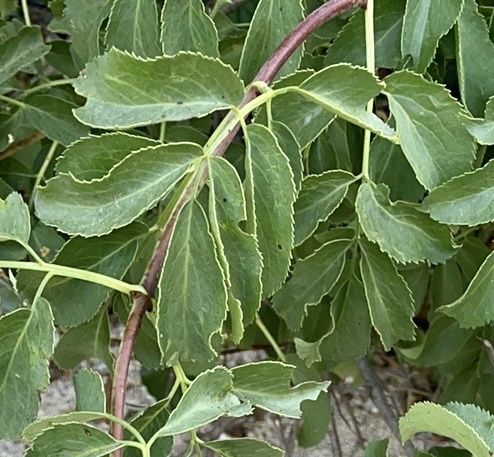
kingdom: Plantae
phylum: Tracheophyta
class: Magnoliopsida
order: Dipsacales
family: Viburnaceae
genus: Sambucus
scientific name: Sambucus cerulea
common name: Blue elder
